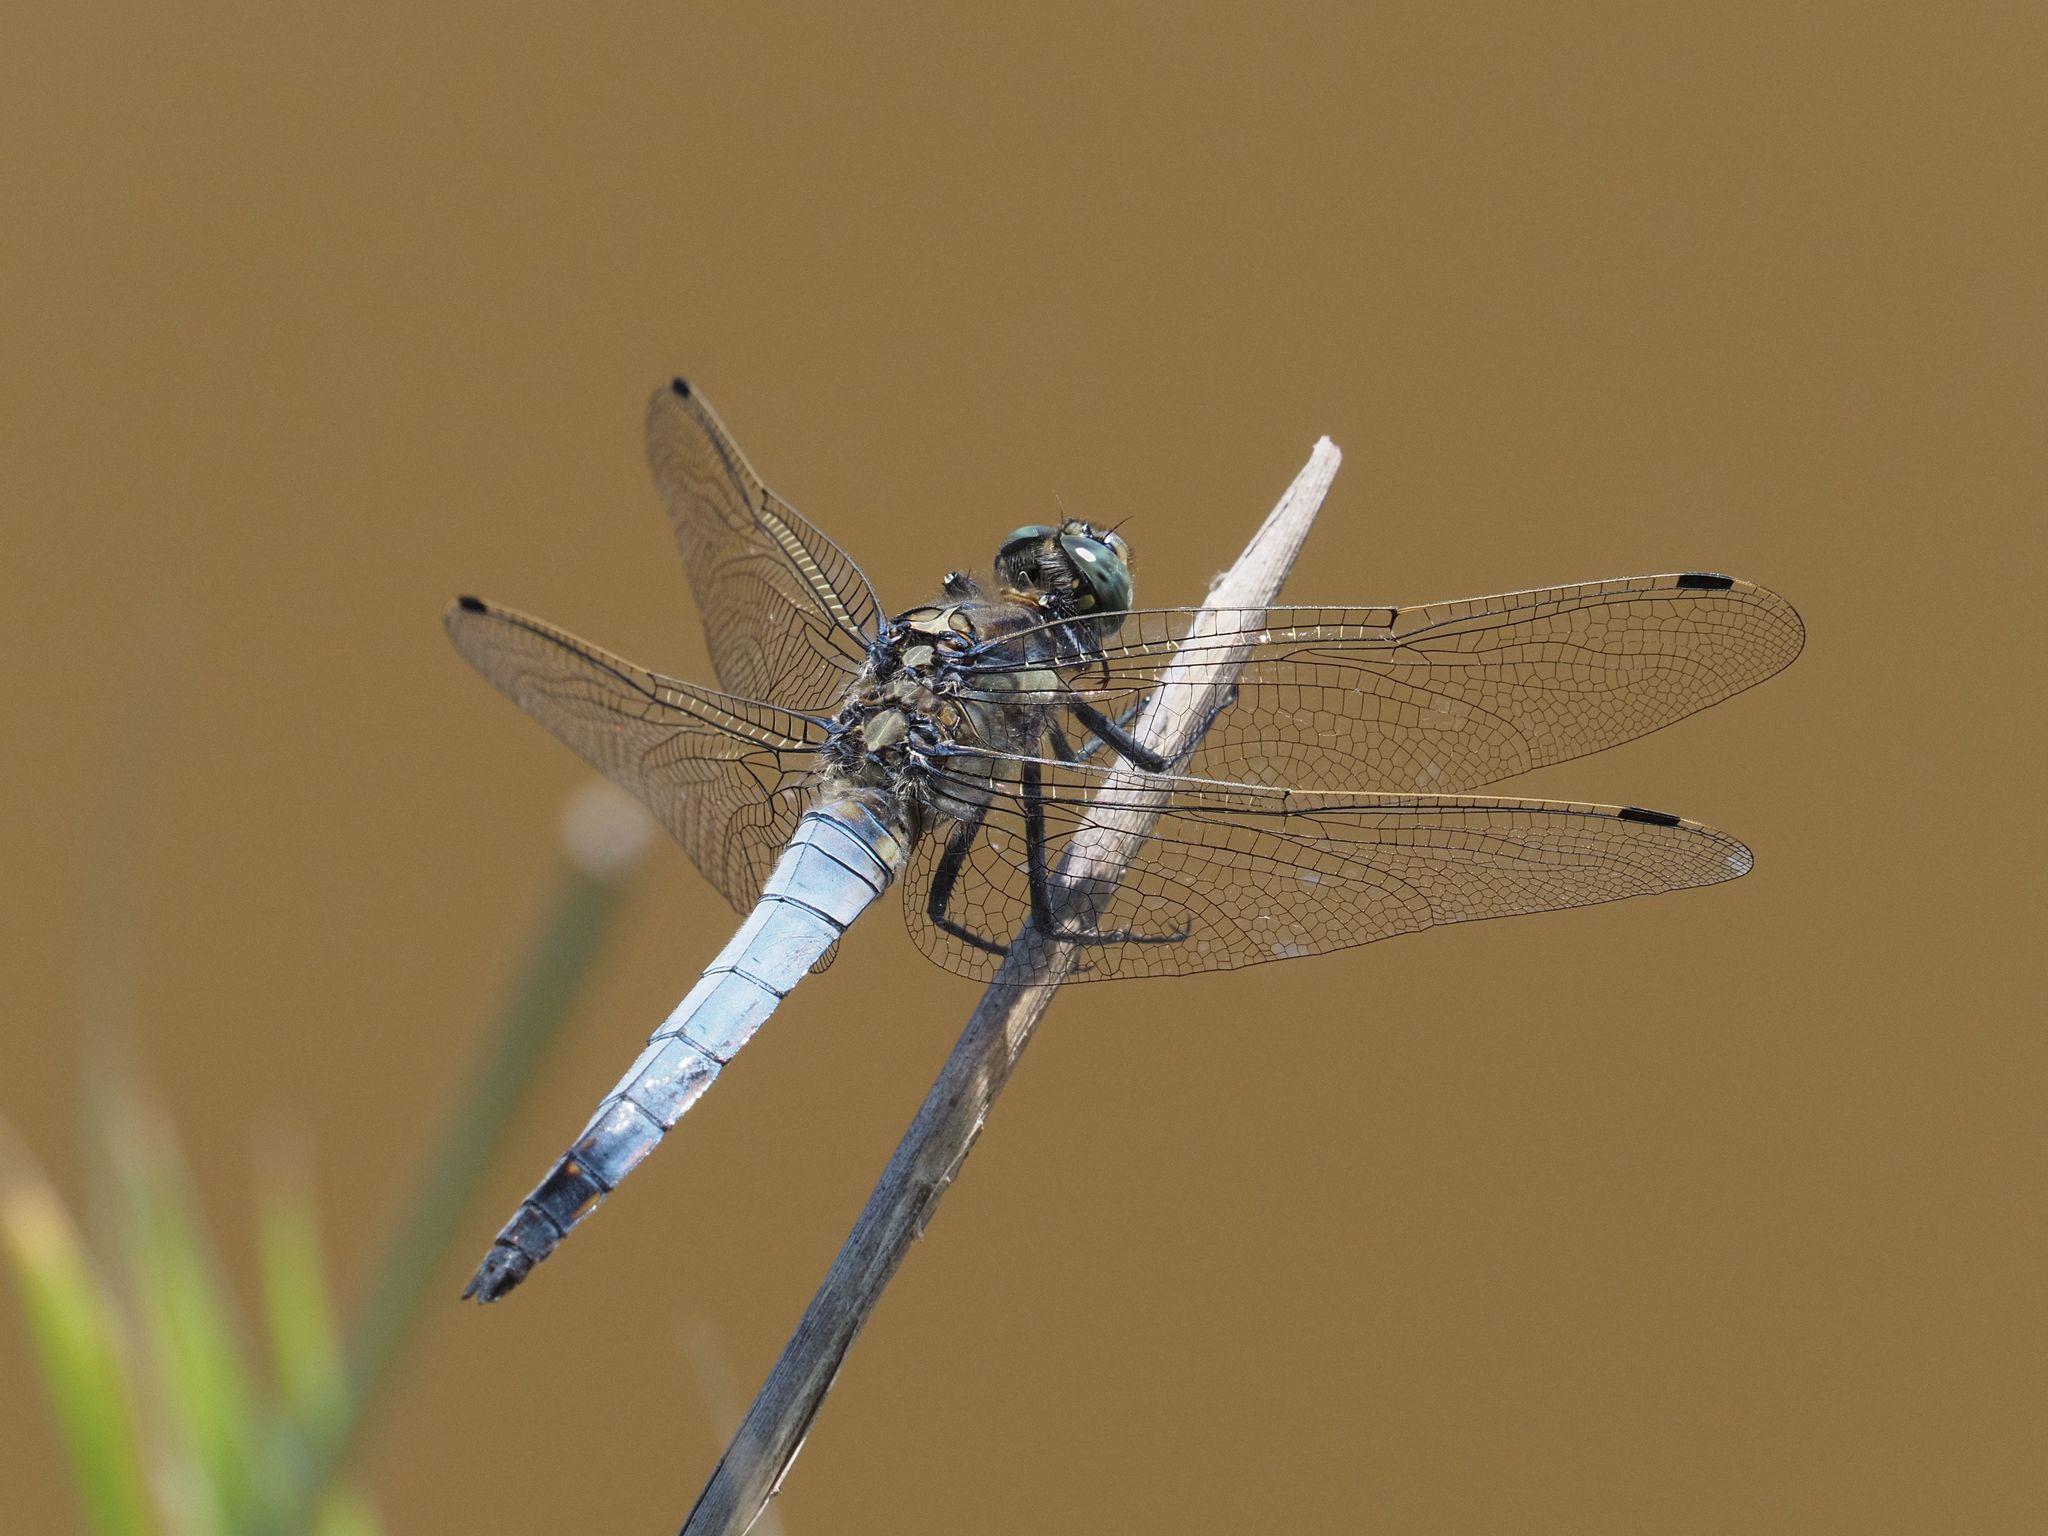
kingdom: Animalia
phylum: Arthropoda
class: Insecta
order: Odonata
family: Libellulidae
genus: Orthetrum
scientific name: Orthetrum cancellatum
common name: Black-tailed skimmer
